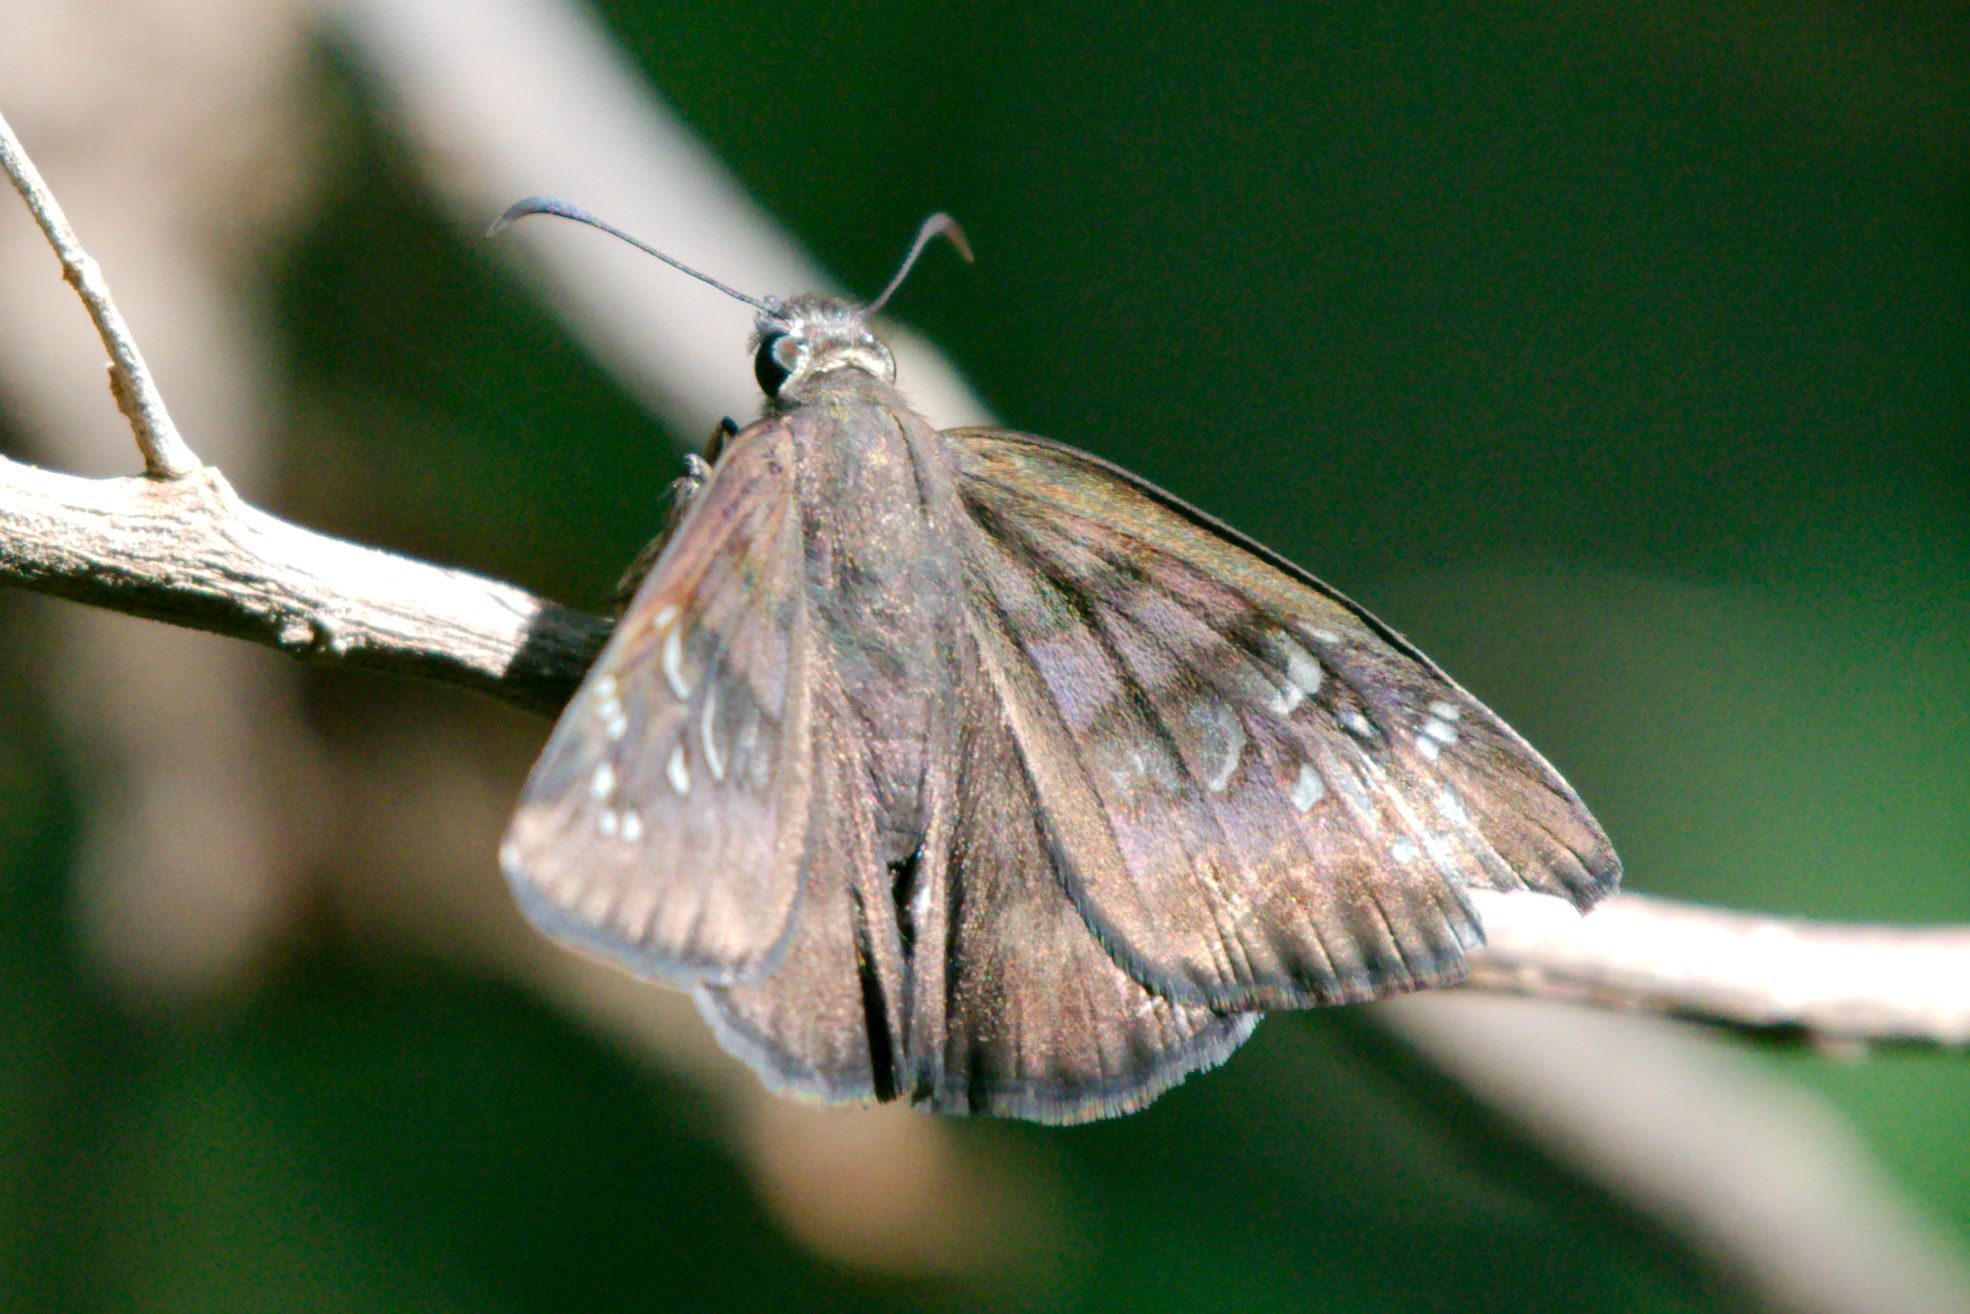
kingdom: Animalia
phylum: Arthropoda
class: Insecta
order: Lepidoptera
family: Hesperiidae
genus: Ephyriades
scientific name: Ephyriades brunnea
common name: Florida duskywing
